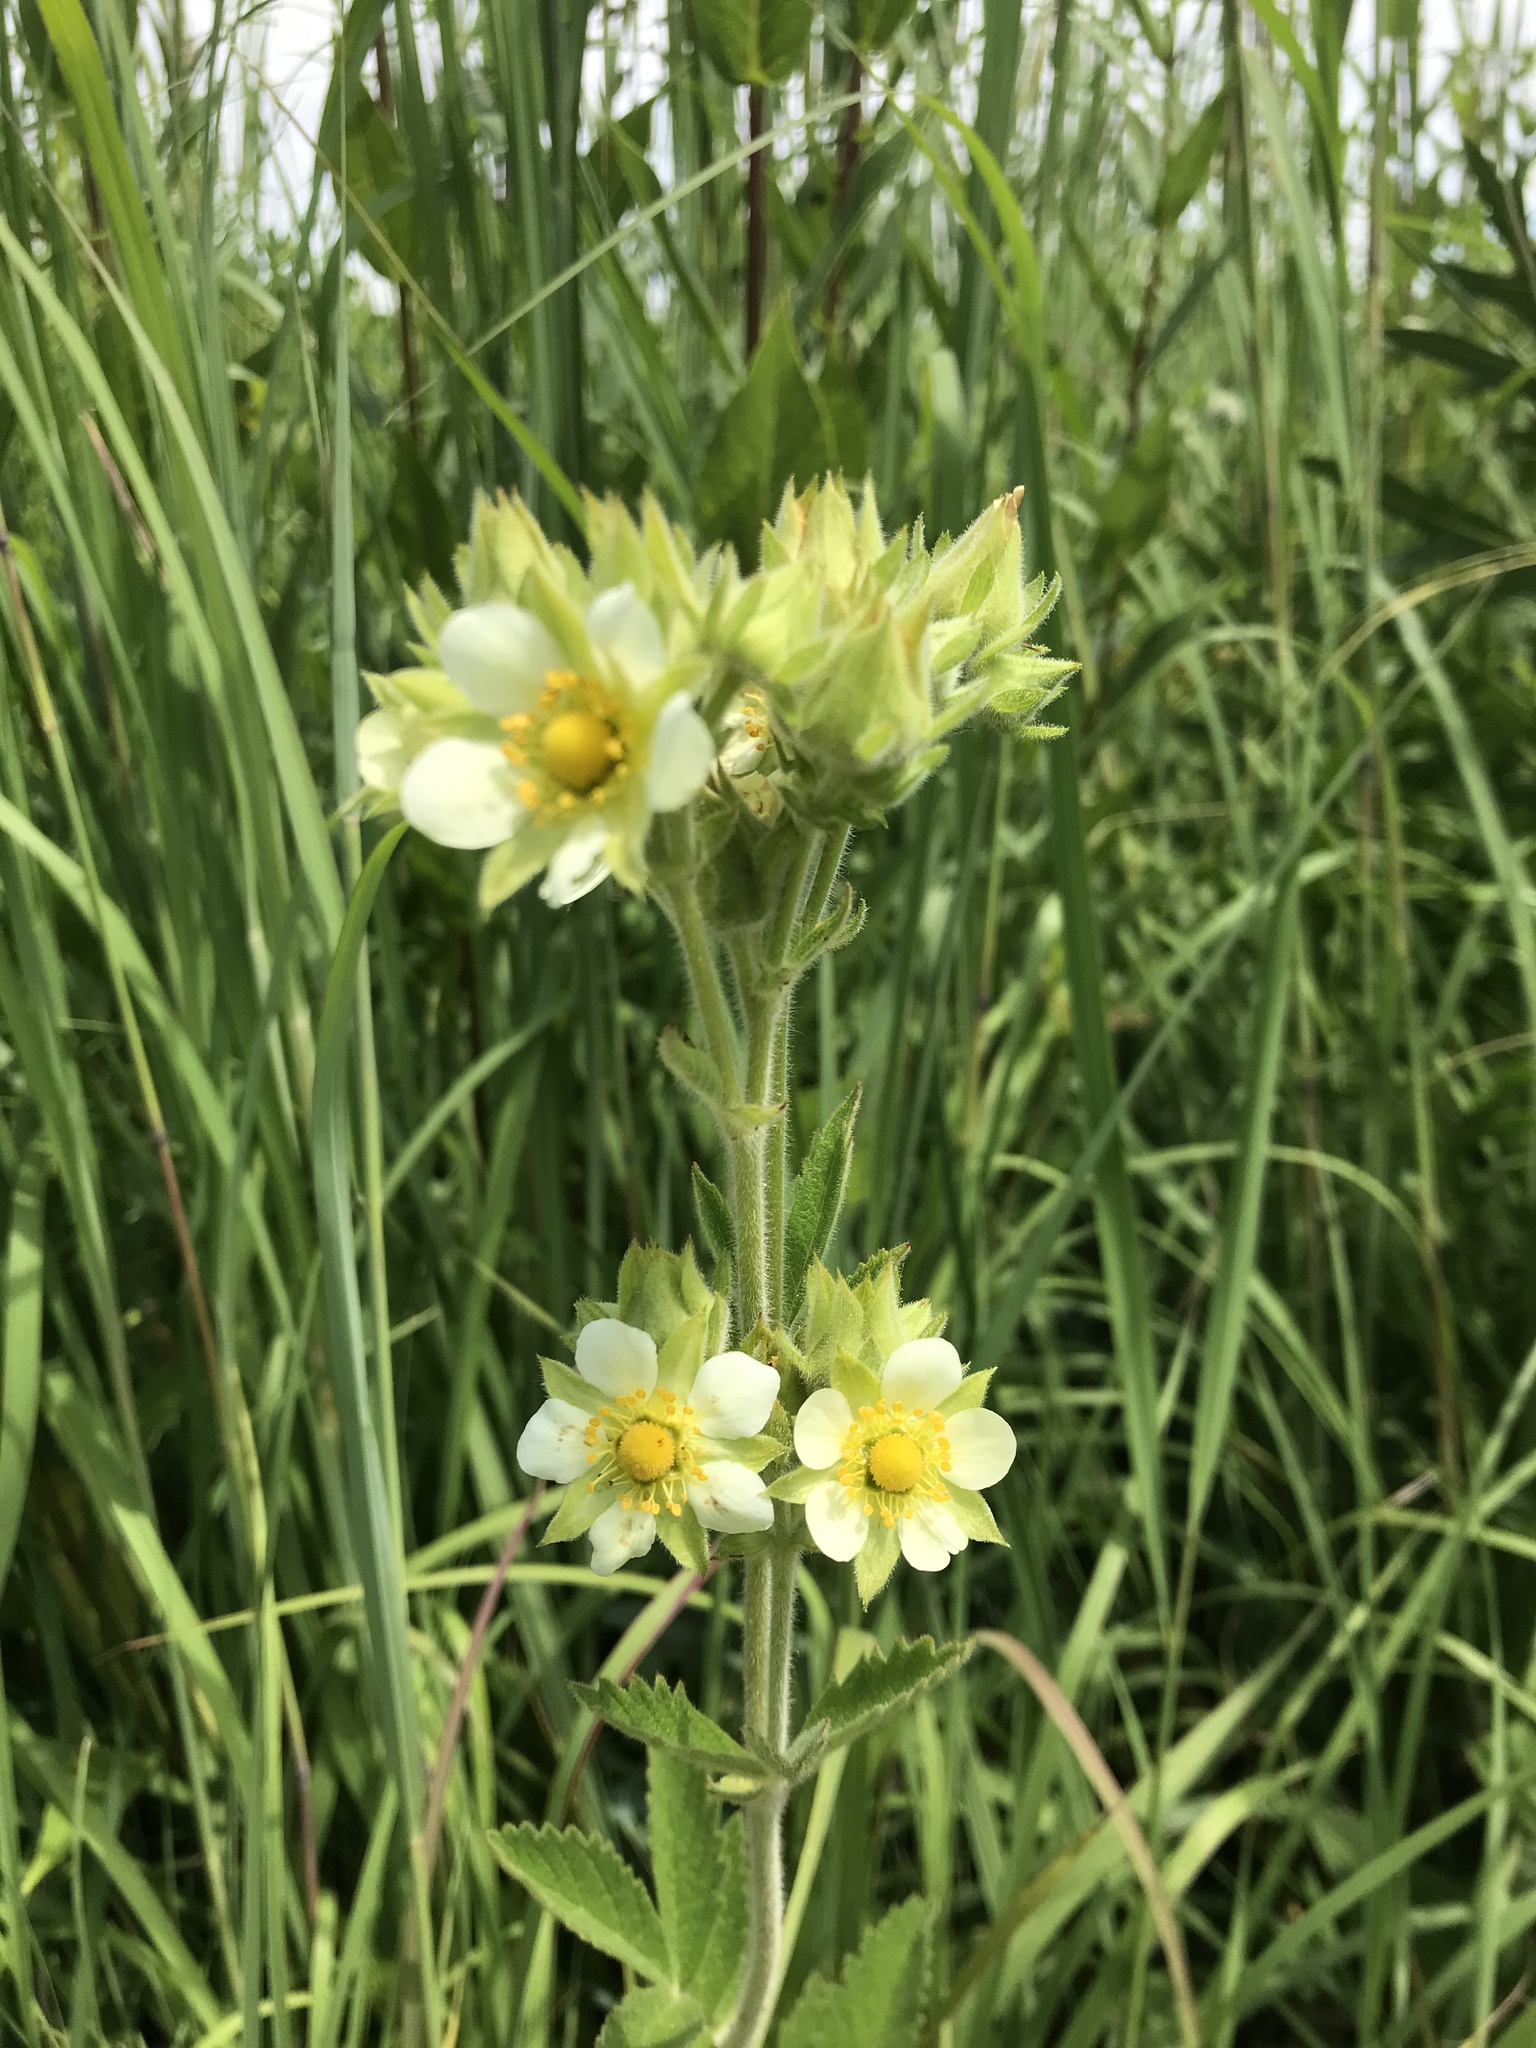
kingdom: Plantae
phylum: Tracheophyta
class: Magnoliopsida
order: Rosales
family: Rosaceae
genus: Drymocallis
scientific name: Drymocallis arguta
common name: Tall cinquefoil
